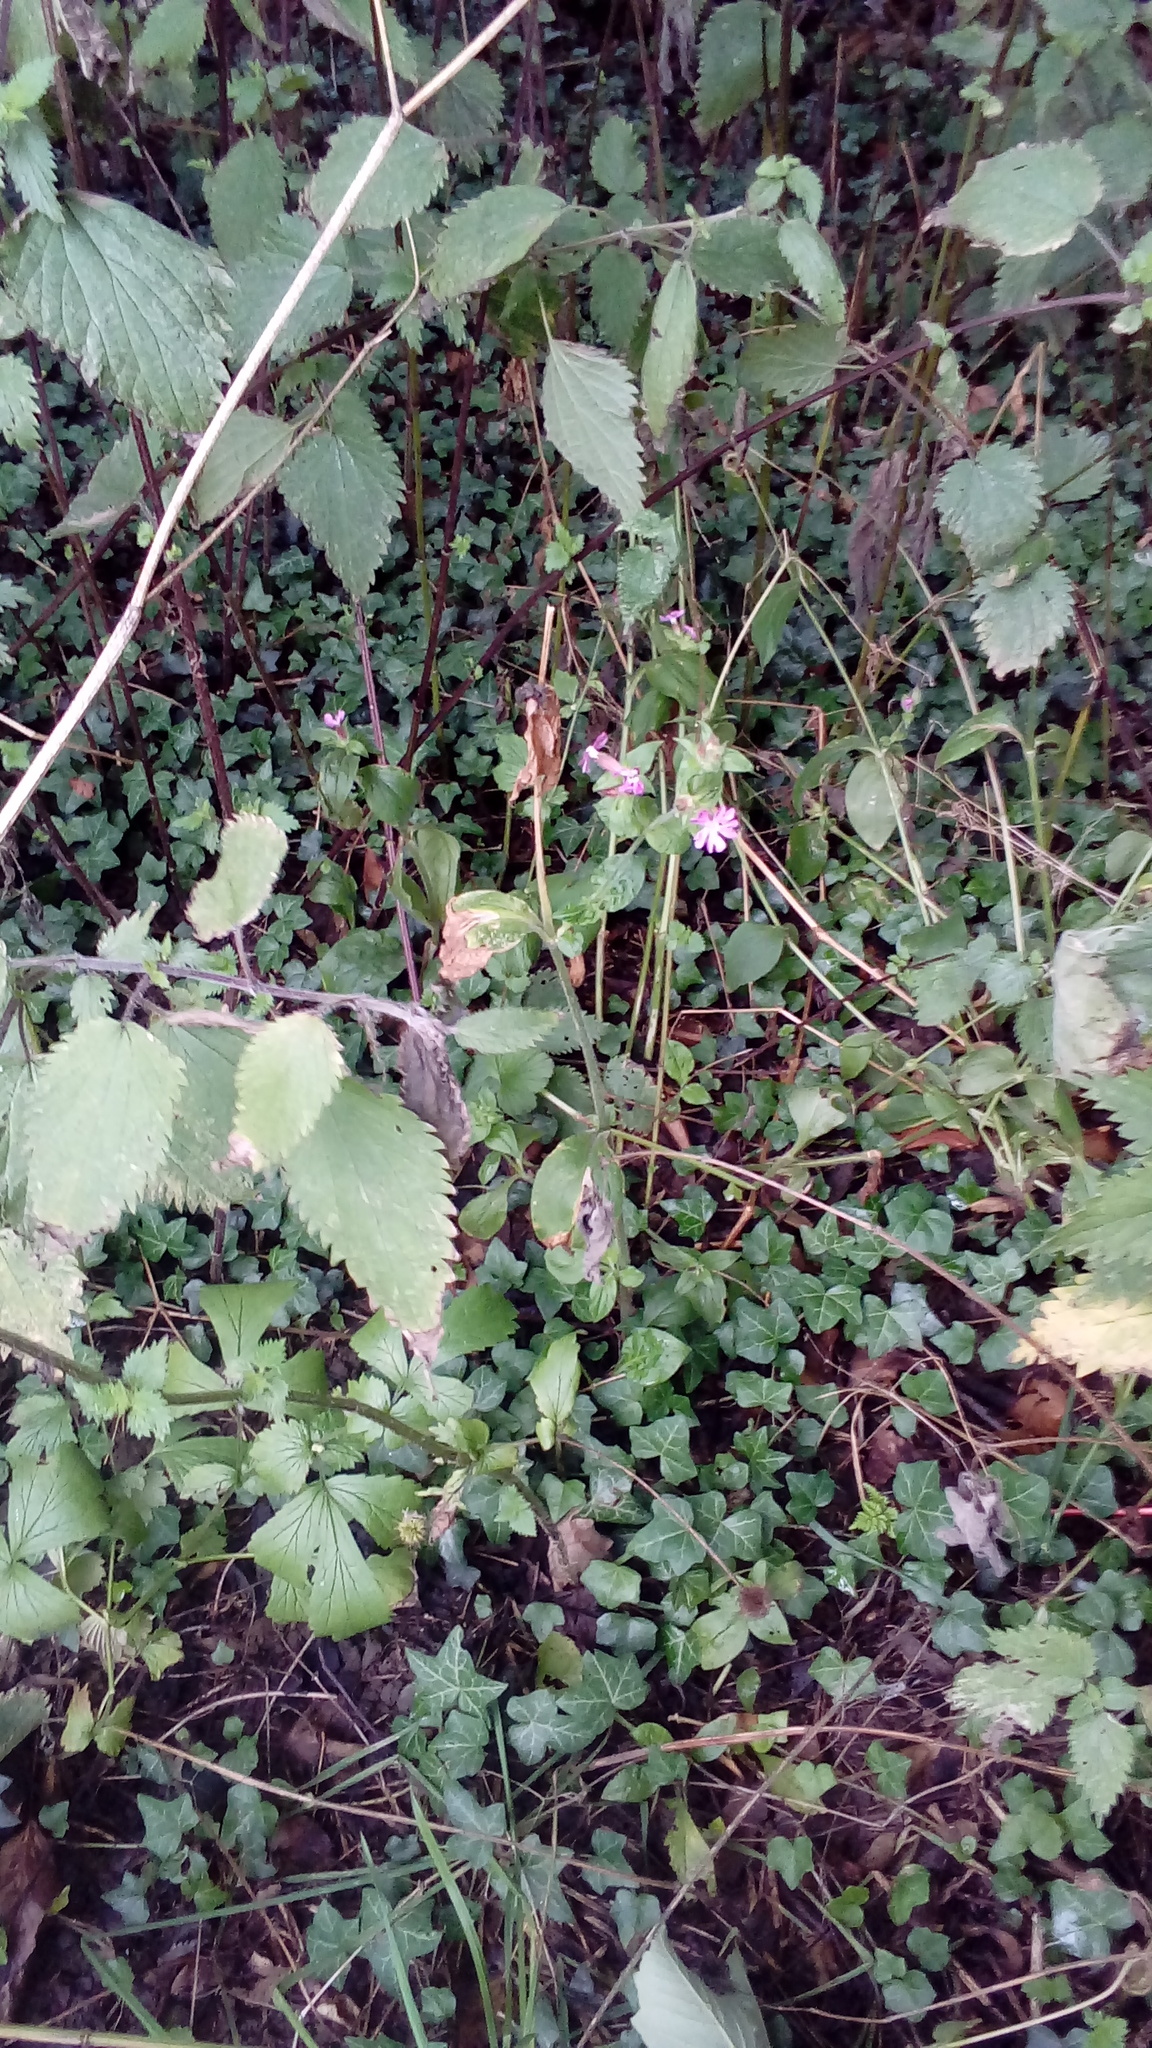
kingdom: Plantae
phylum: Tracheophyta
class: Magnoliopsida
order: Caryophyllales
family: Caryophyllaceae
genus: Silene
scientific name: Silene dioica
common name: Red campion
